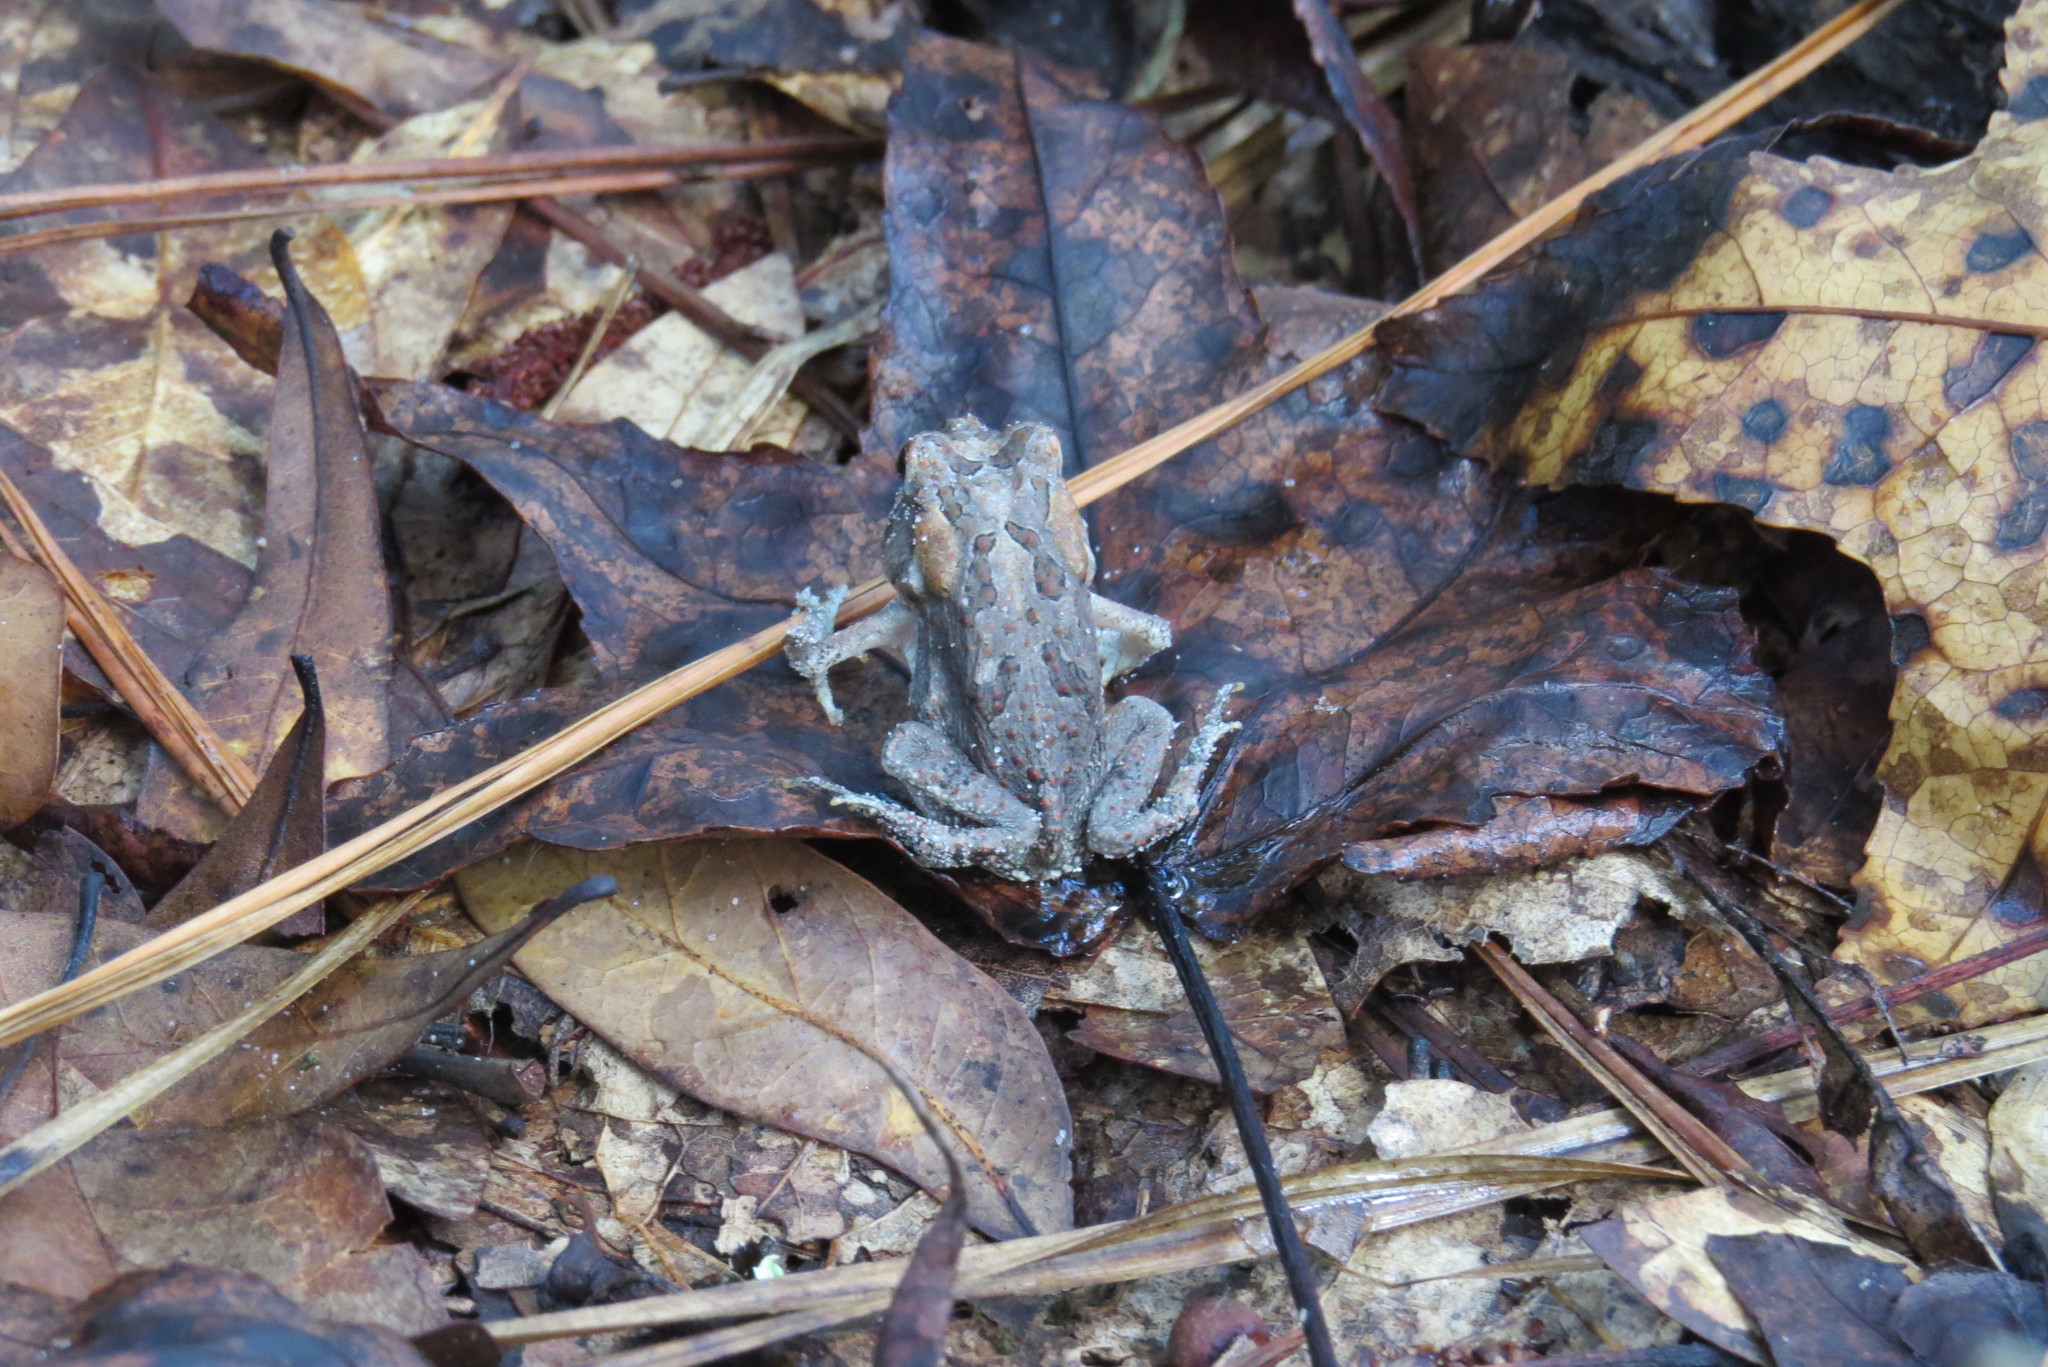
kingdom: Animalia
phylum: Chordata
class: Amphibia
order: Anura
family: Bufonidae
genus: Anaxyrus
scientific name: Anaxyrus terrestris
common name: Southern toad
